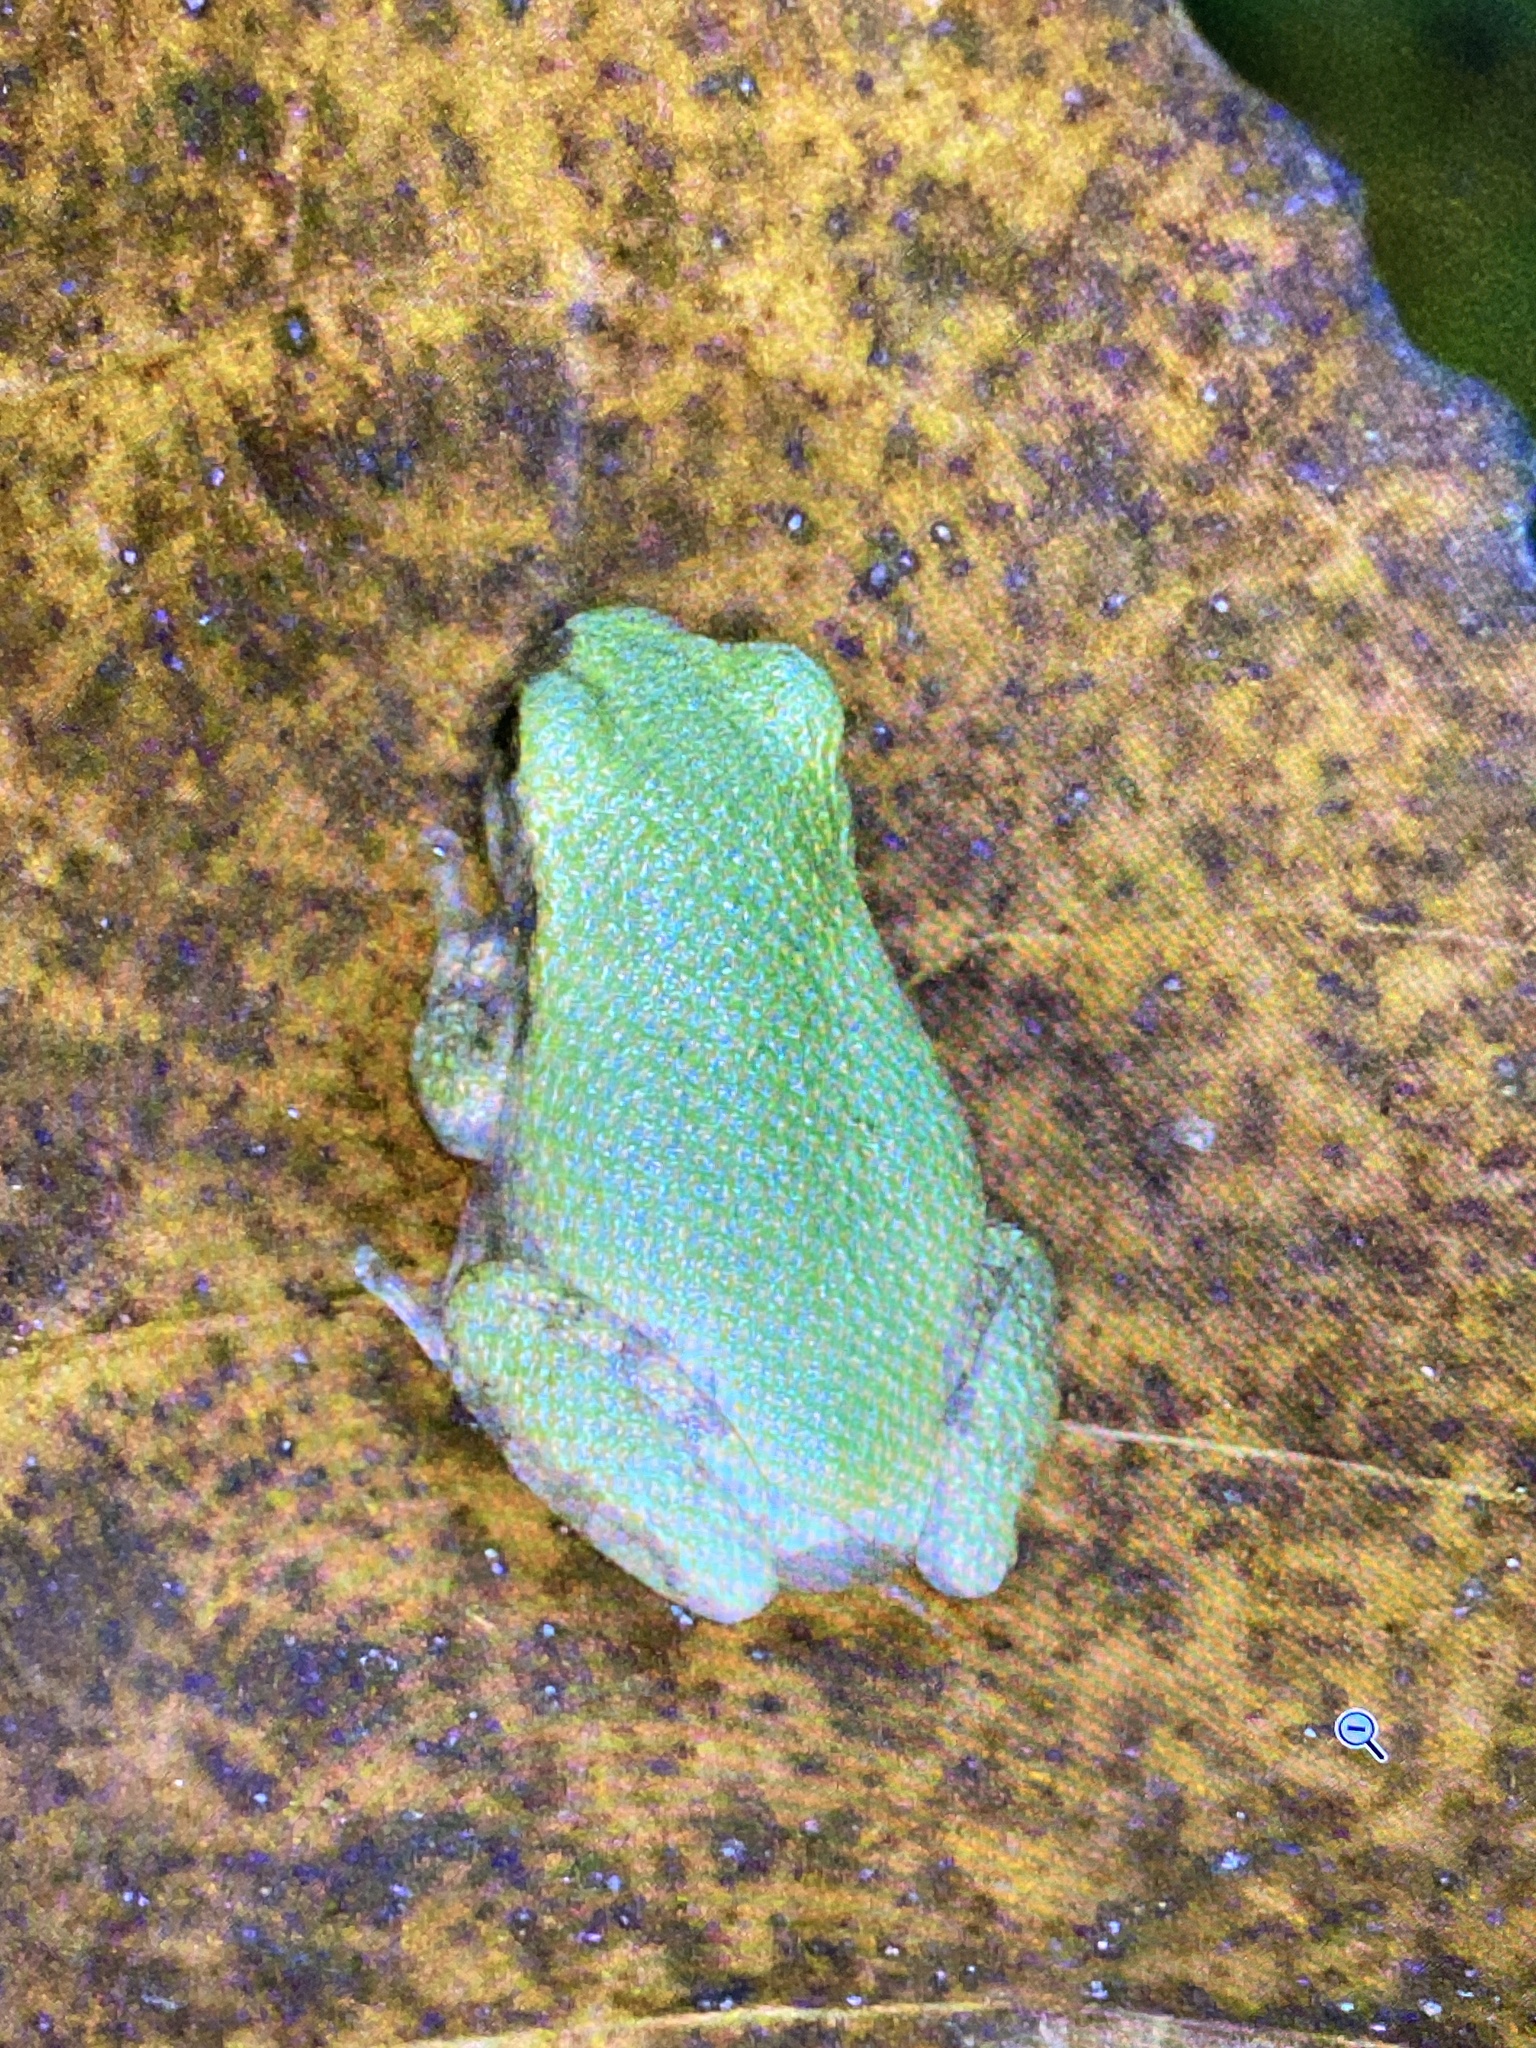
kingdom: Animalia
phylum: Chordata
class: Amphibia
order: Anura
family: Hylidae
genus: Dryophytes
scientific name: Dryophytes chrysoscelis
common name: Cope's gray treefrog
